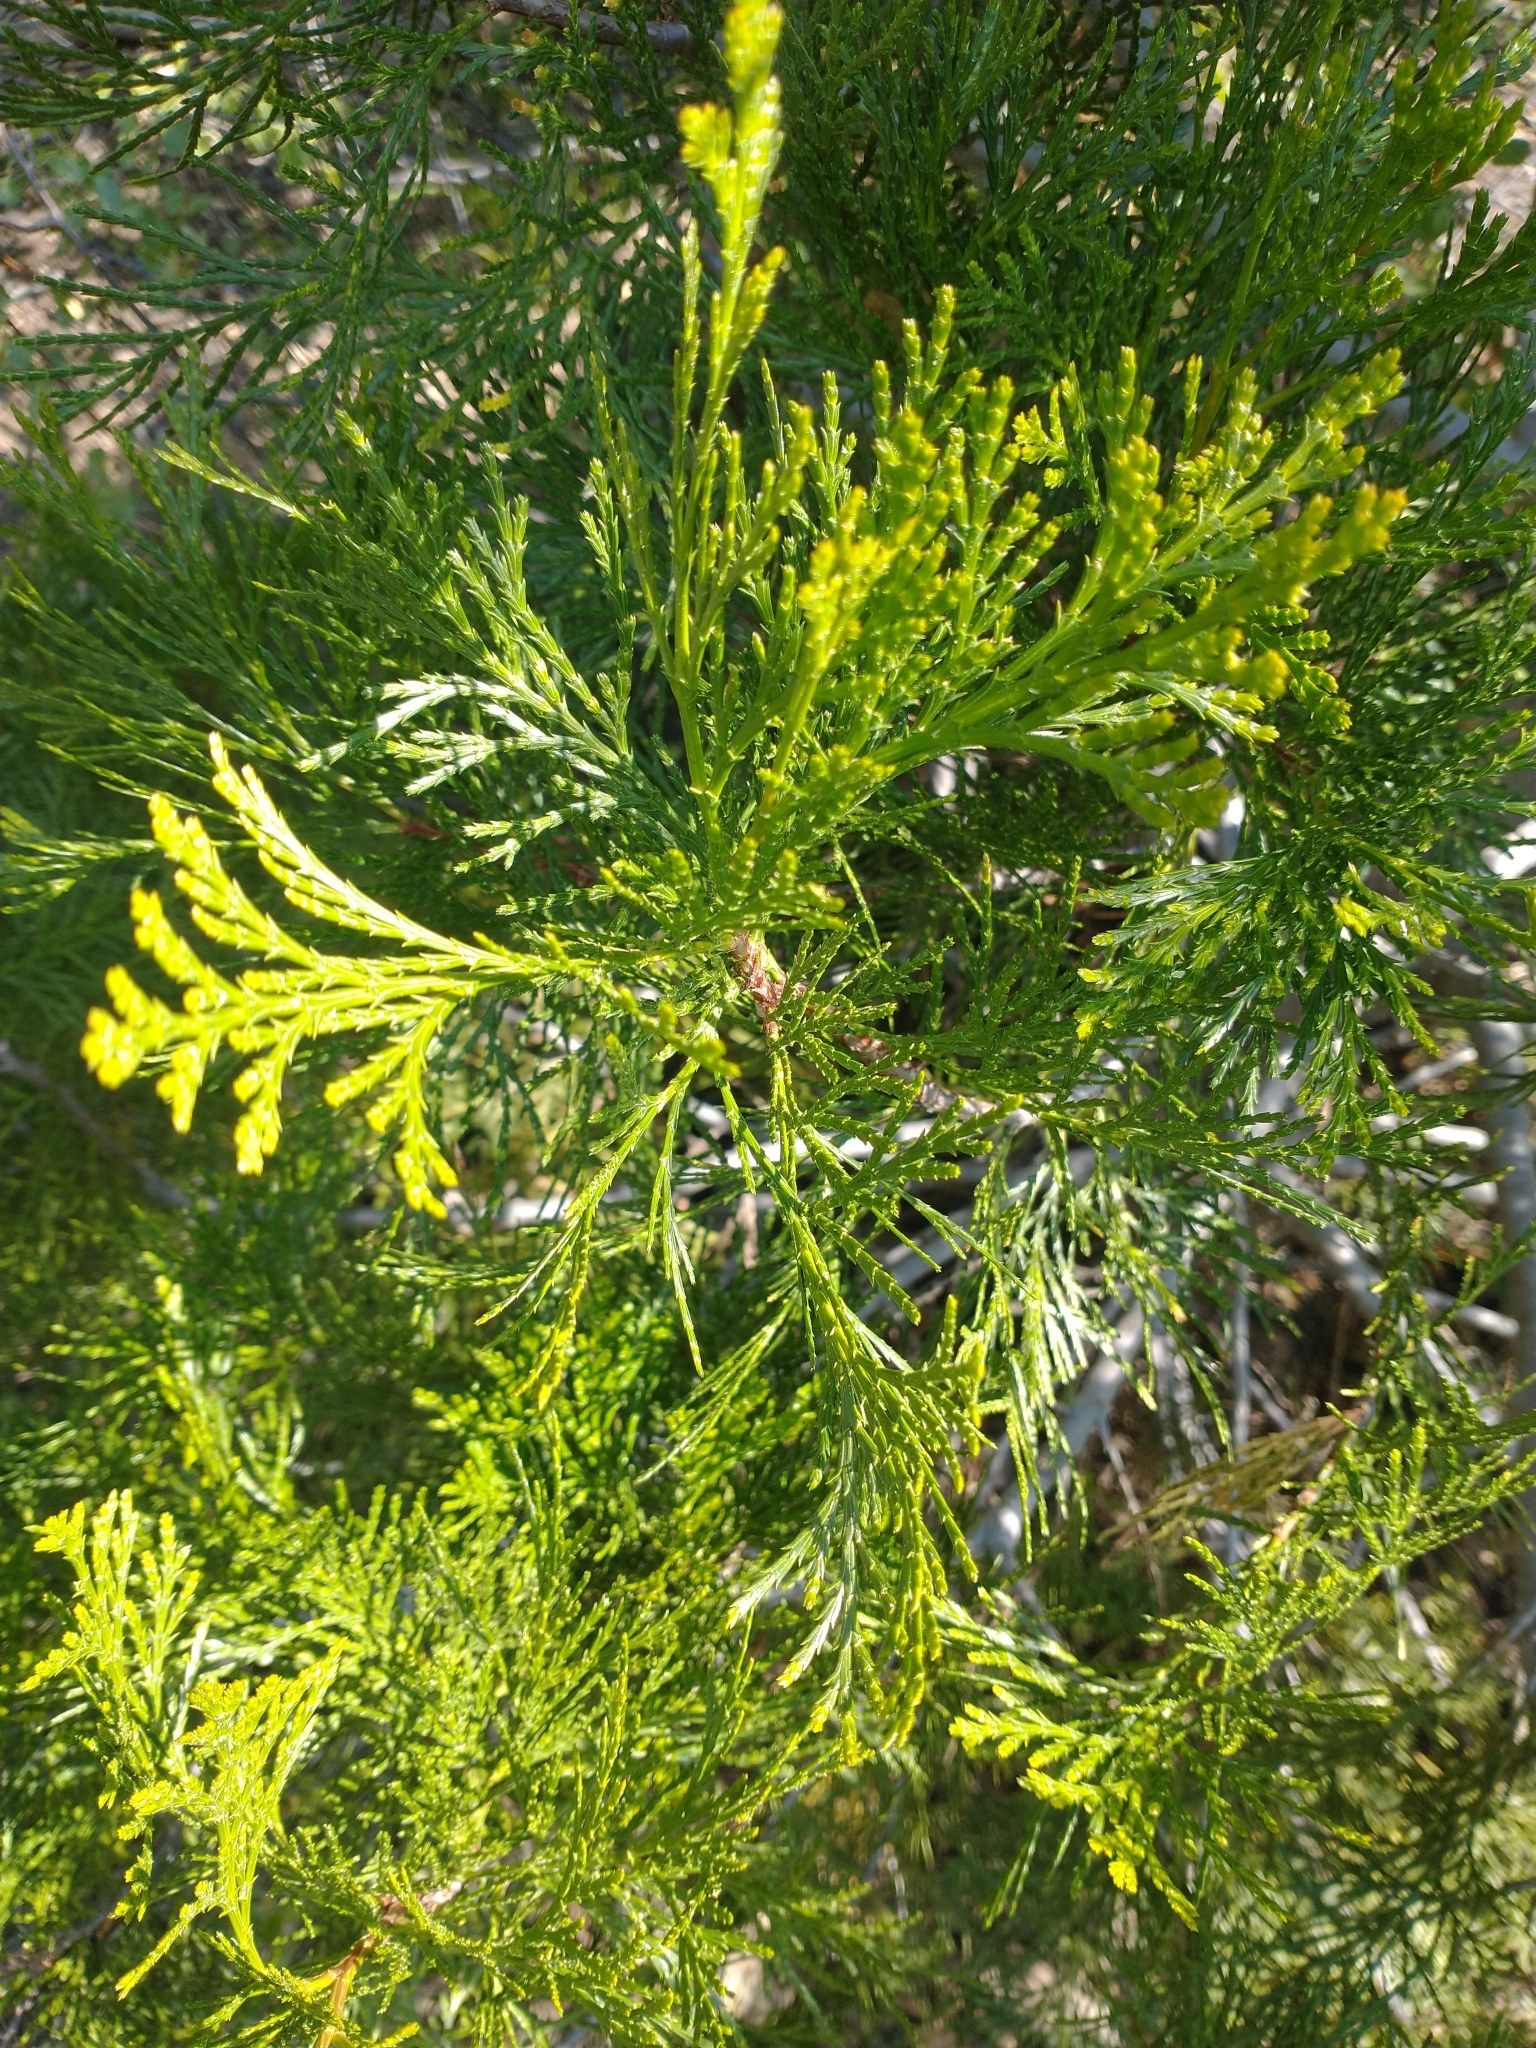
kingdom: Plantae
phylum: Tracheophyta
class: Pinopsida
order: Pinales
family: Cupressaceae
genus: Calocedrus
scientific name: Calocedrus decurrens
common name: Californian incense-cedar
